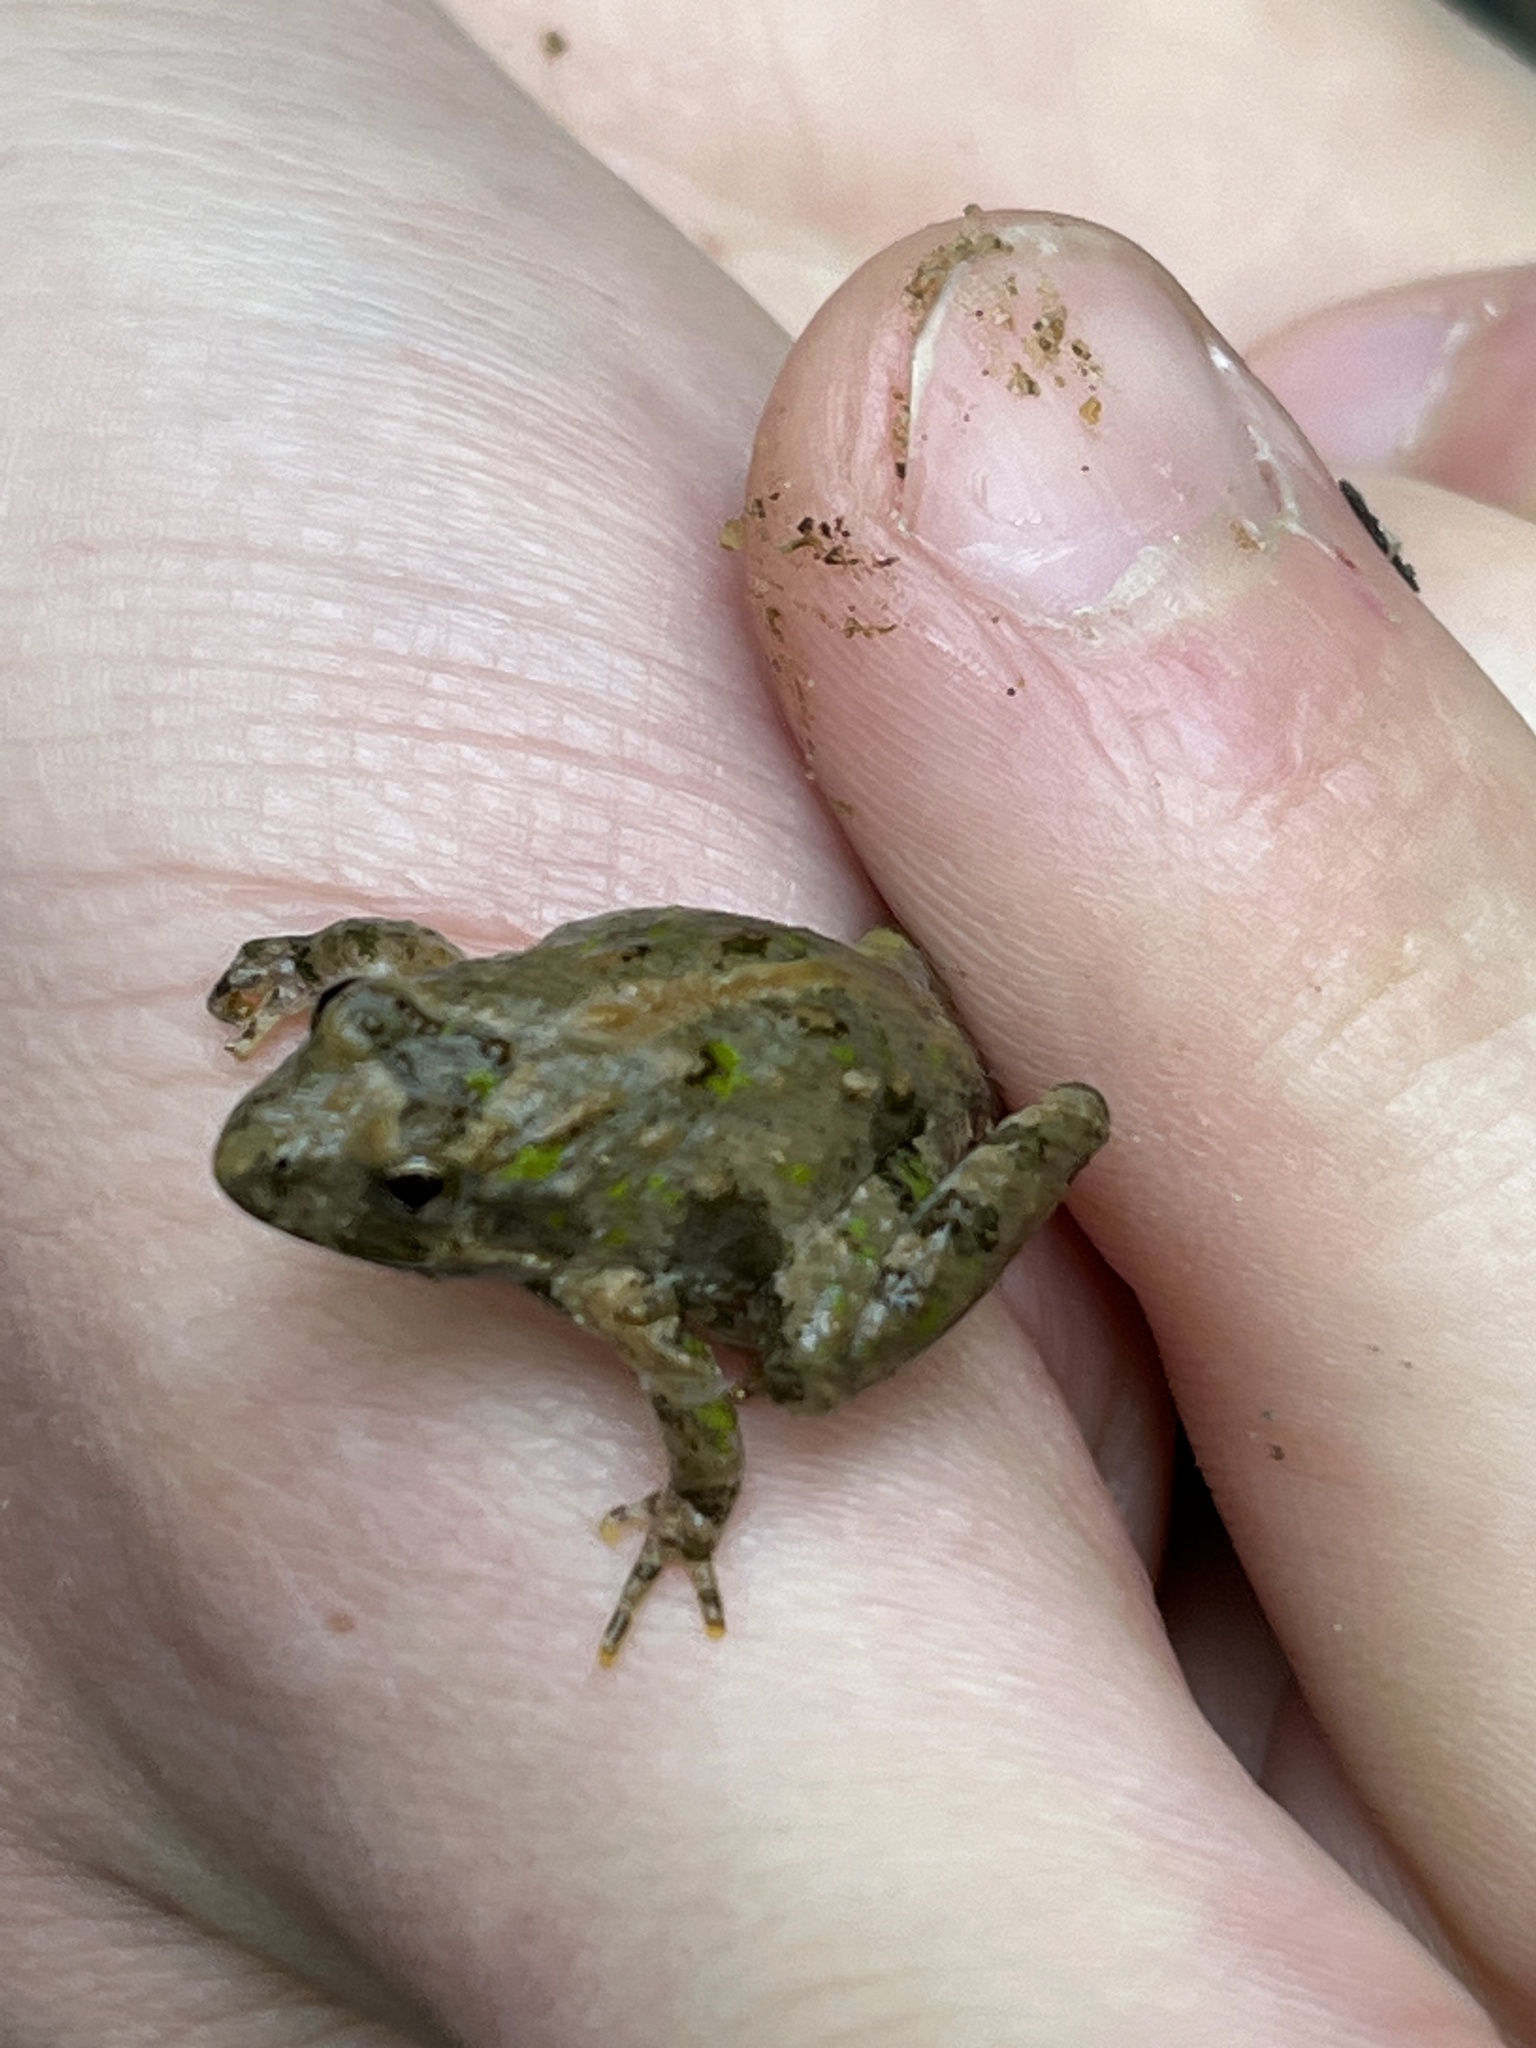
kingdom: Animalia
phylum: Chordata
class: Amphibia
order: Anura
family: Hylidae
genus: Acris
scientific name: Acris crepitans
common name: Northern cricket frog
